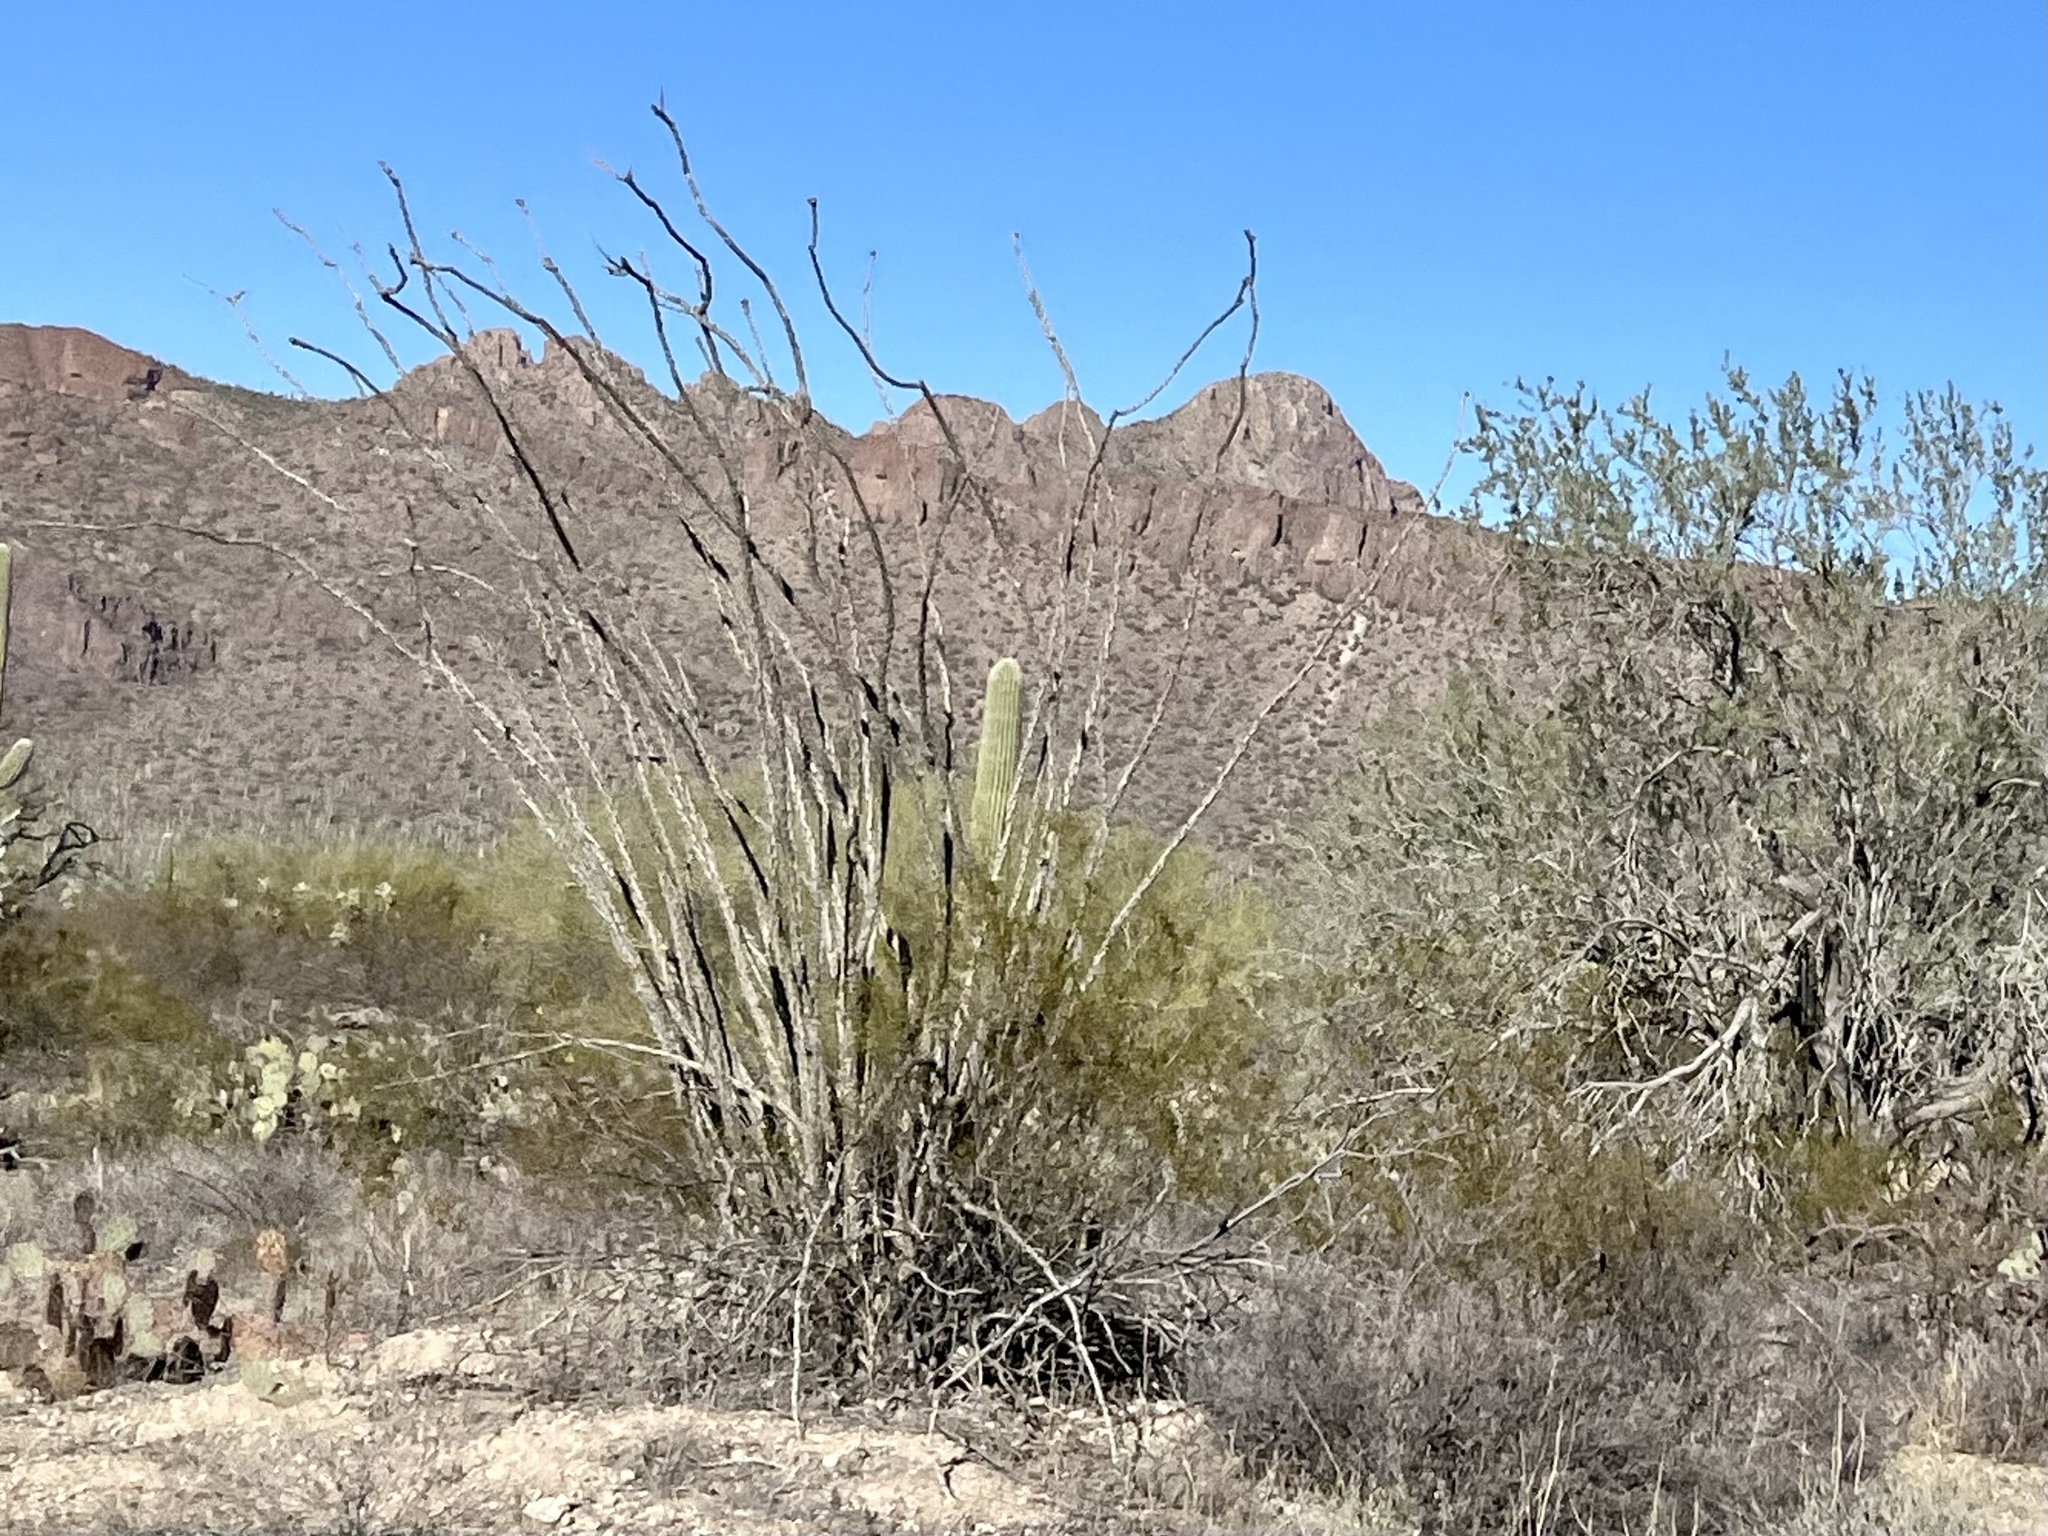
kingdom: Plantae
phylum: Tracheophyta
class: Magnoliopsida
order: Ericales
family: Fouquieriaceae
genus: Fouquieria
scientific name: Fouquieria splendens
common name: Vine-cactus
